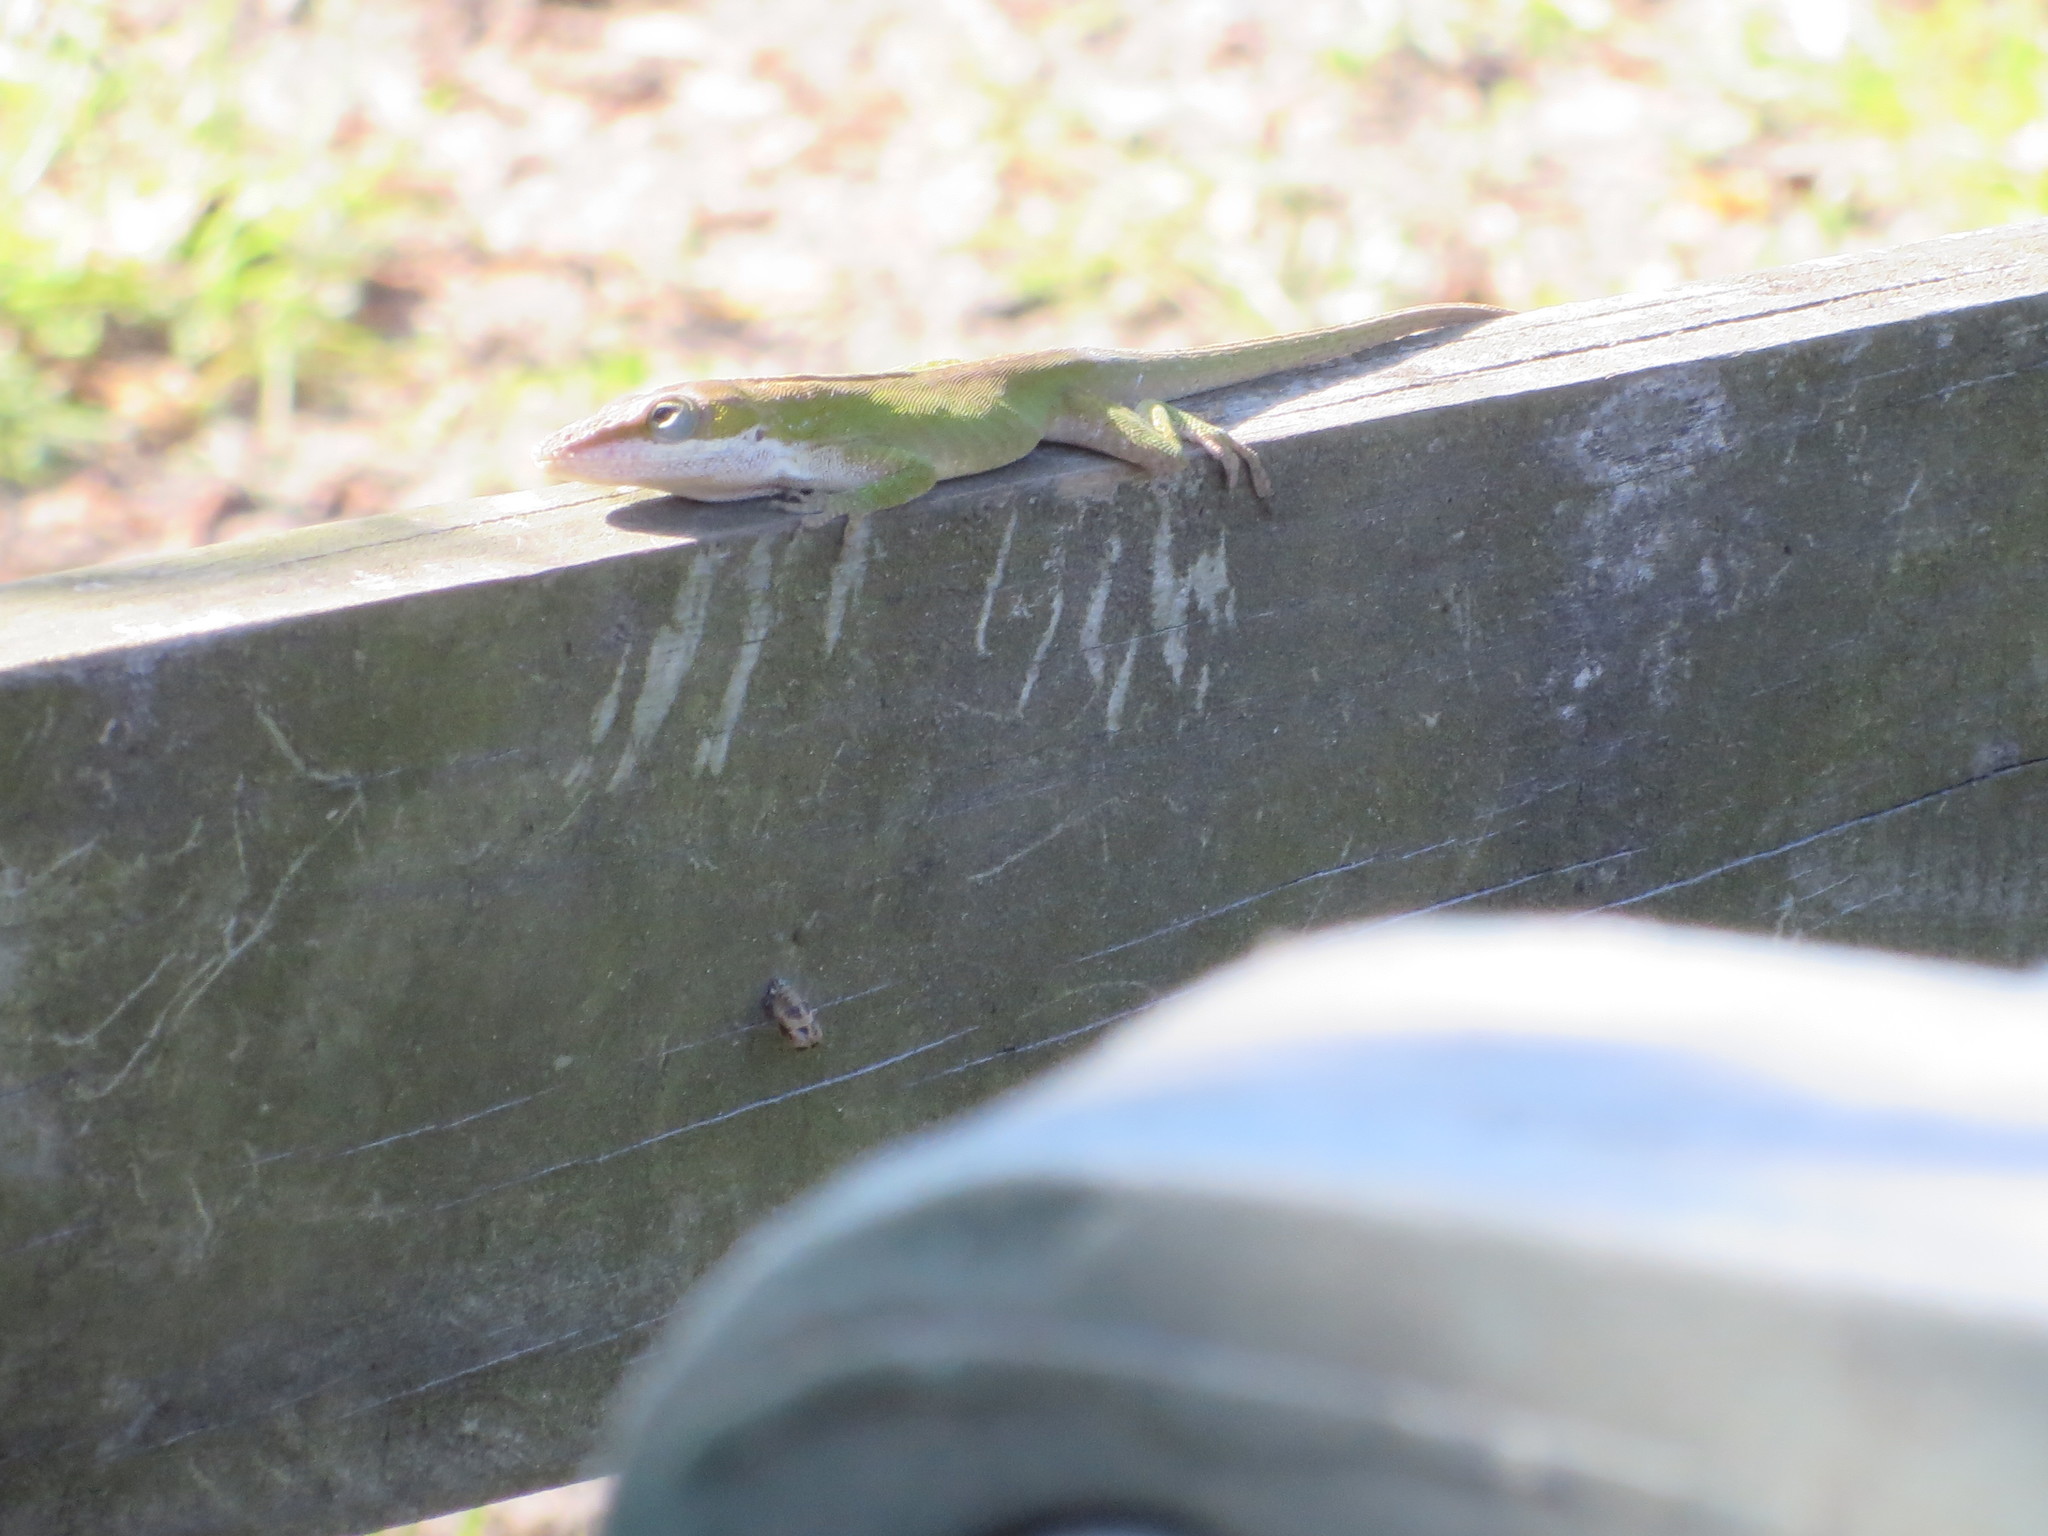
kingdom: Animalia
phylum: Chordata
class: Squamata
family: Dactyloidae
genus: Anolis
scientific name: Anolis carolinensis
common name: Green anole
